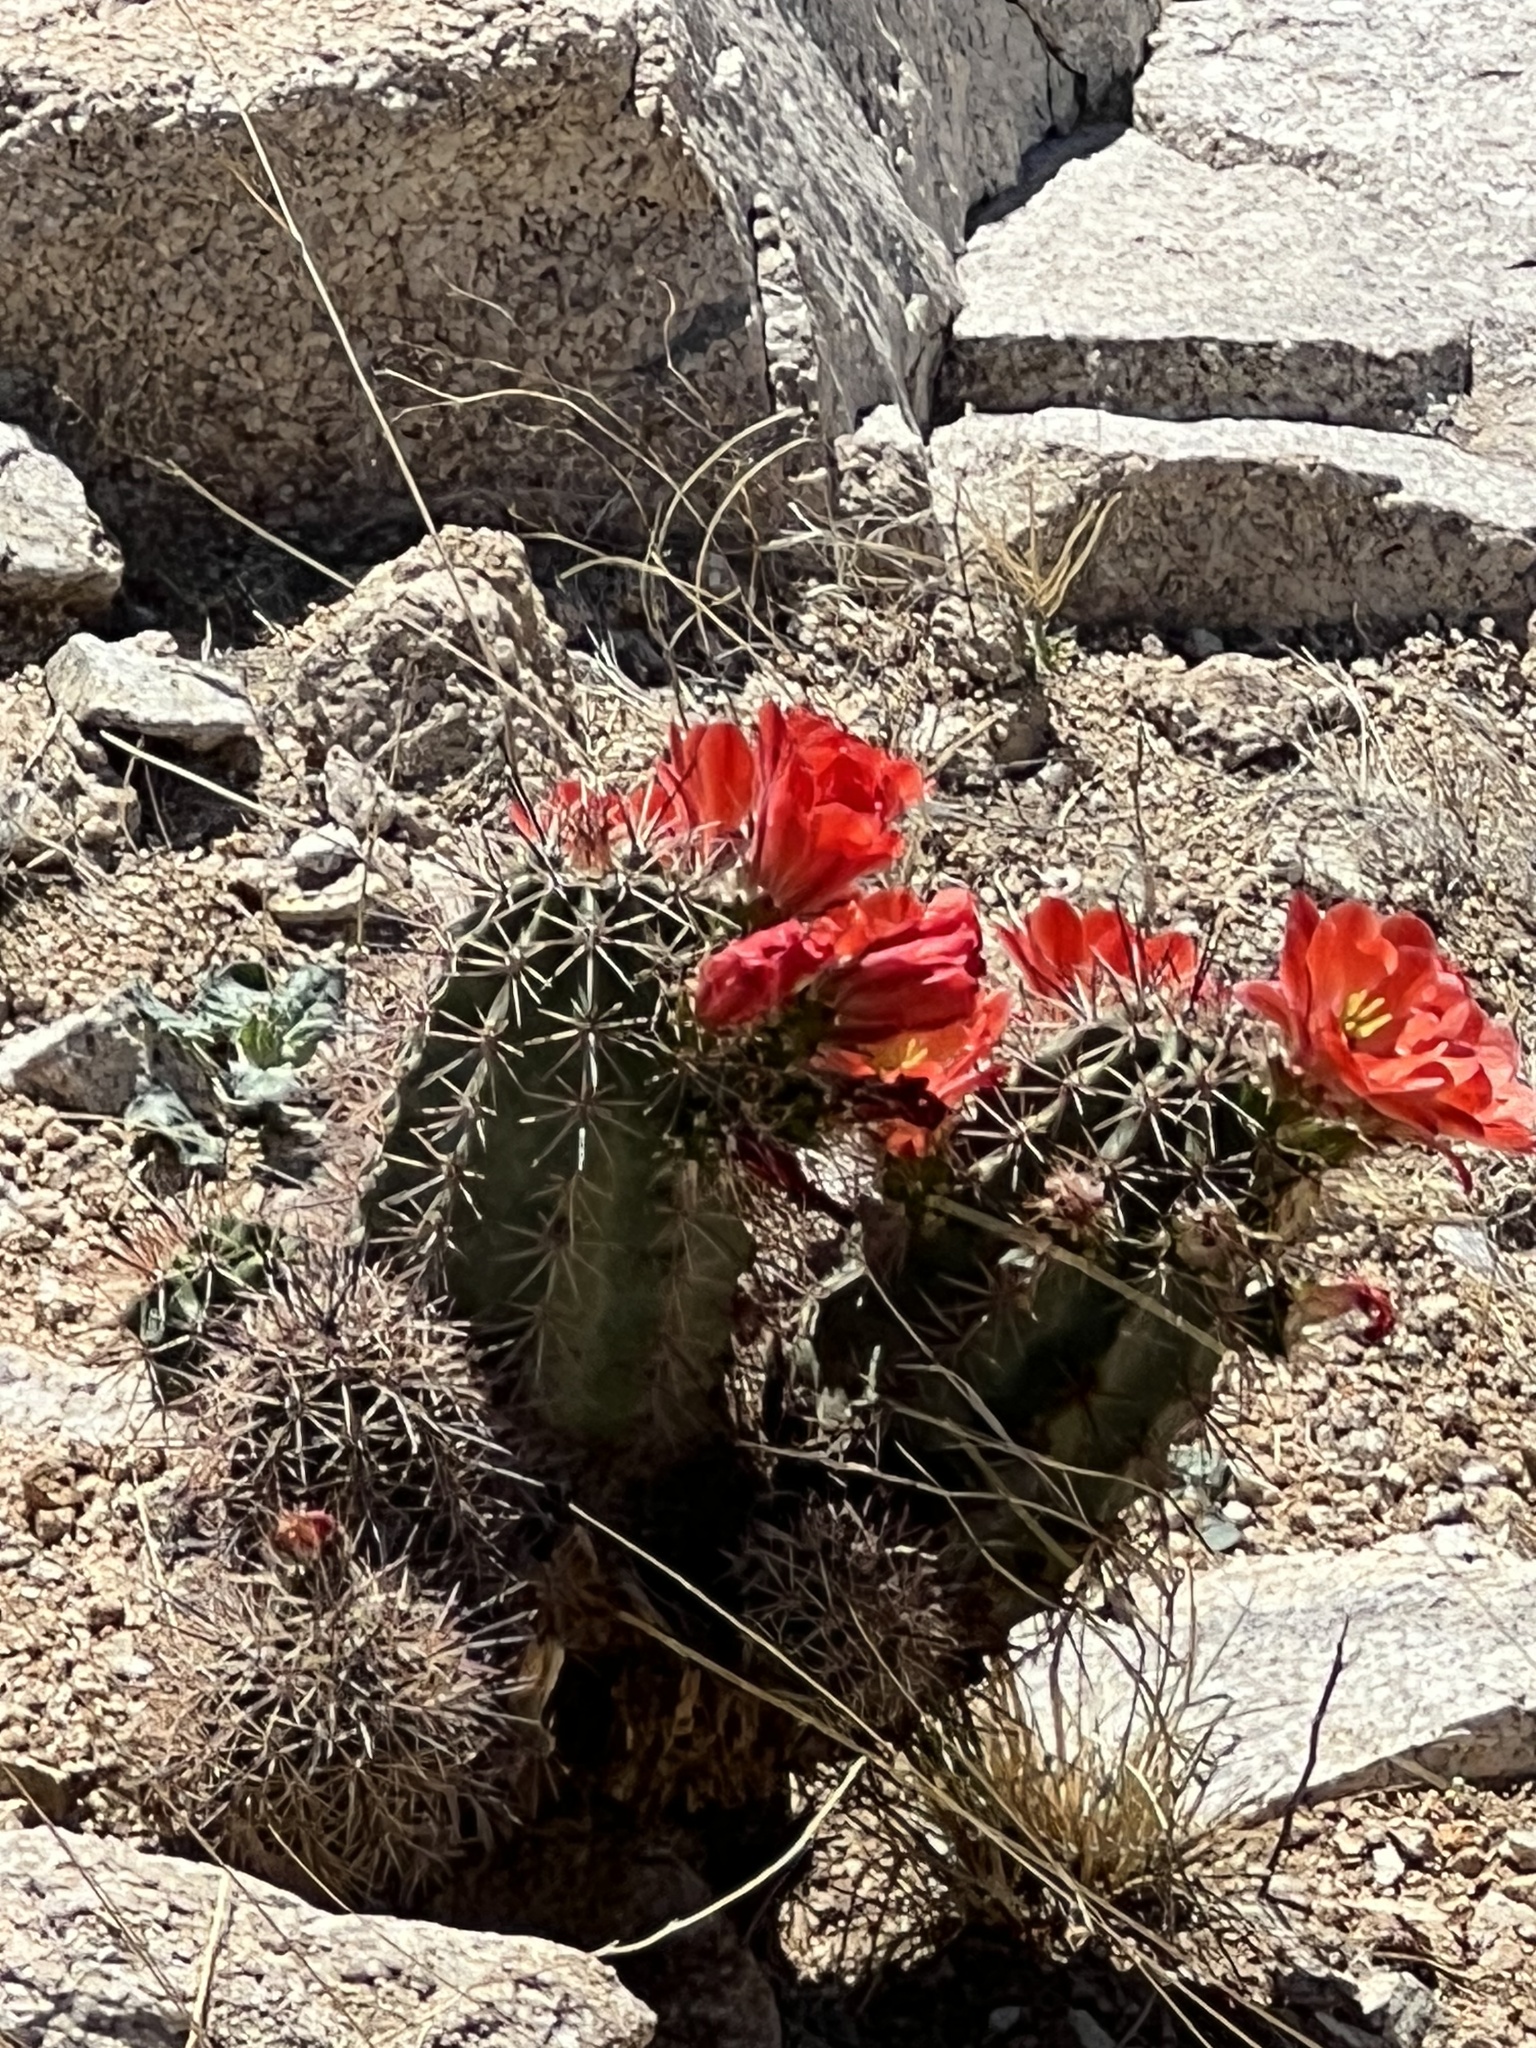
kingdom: Plantae
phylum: Tracheophyta
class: Magnoliopsida
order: Caryophyllales
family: Cactaceae
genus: Echinocereus
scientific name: Echinocereus coccineus
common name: Scarlet hedgehog cactus
